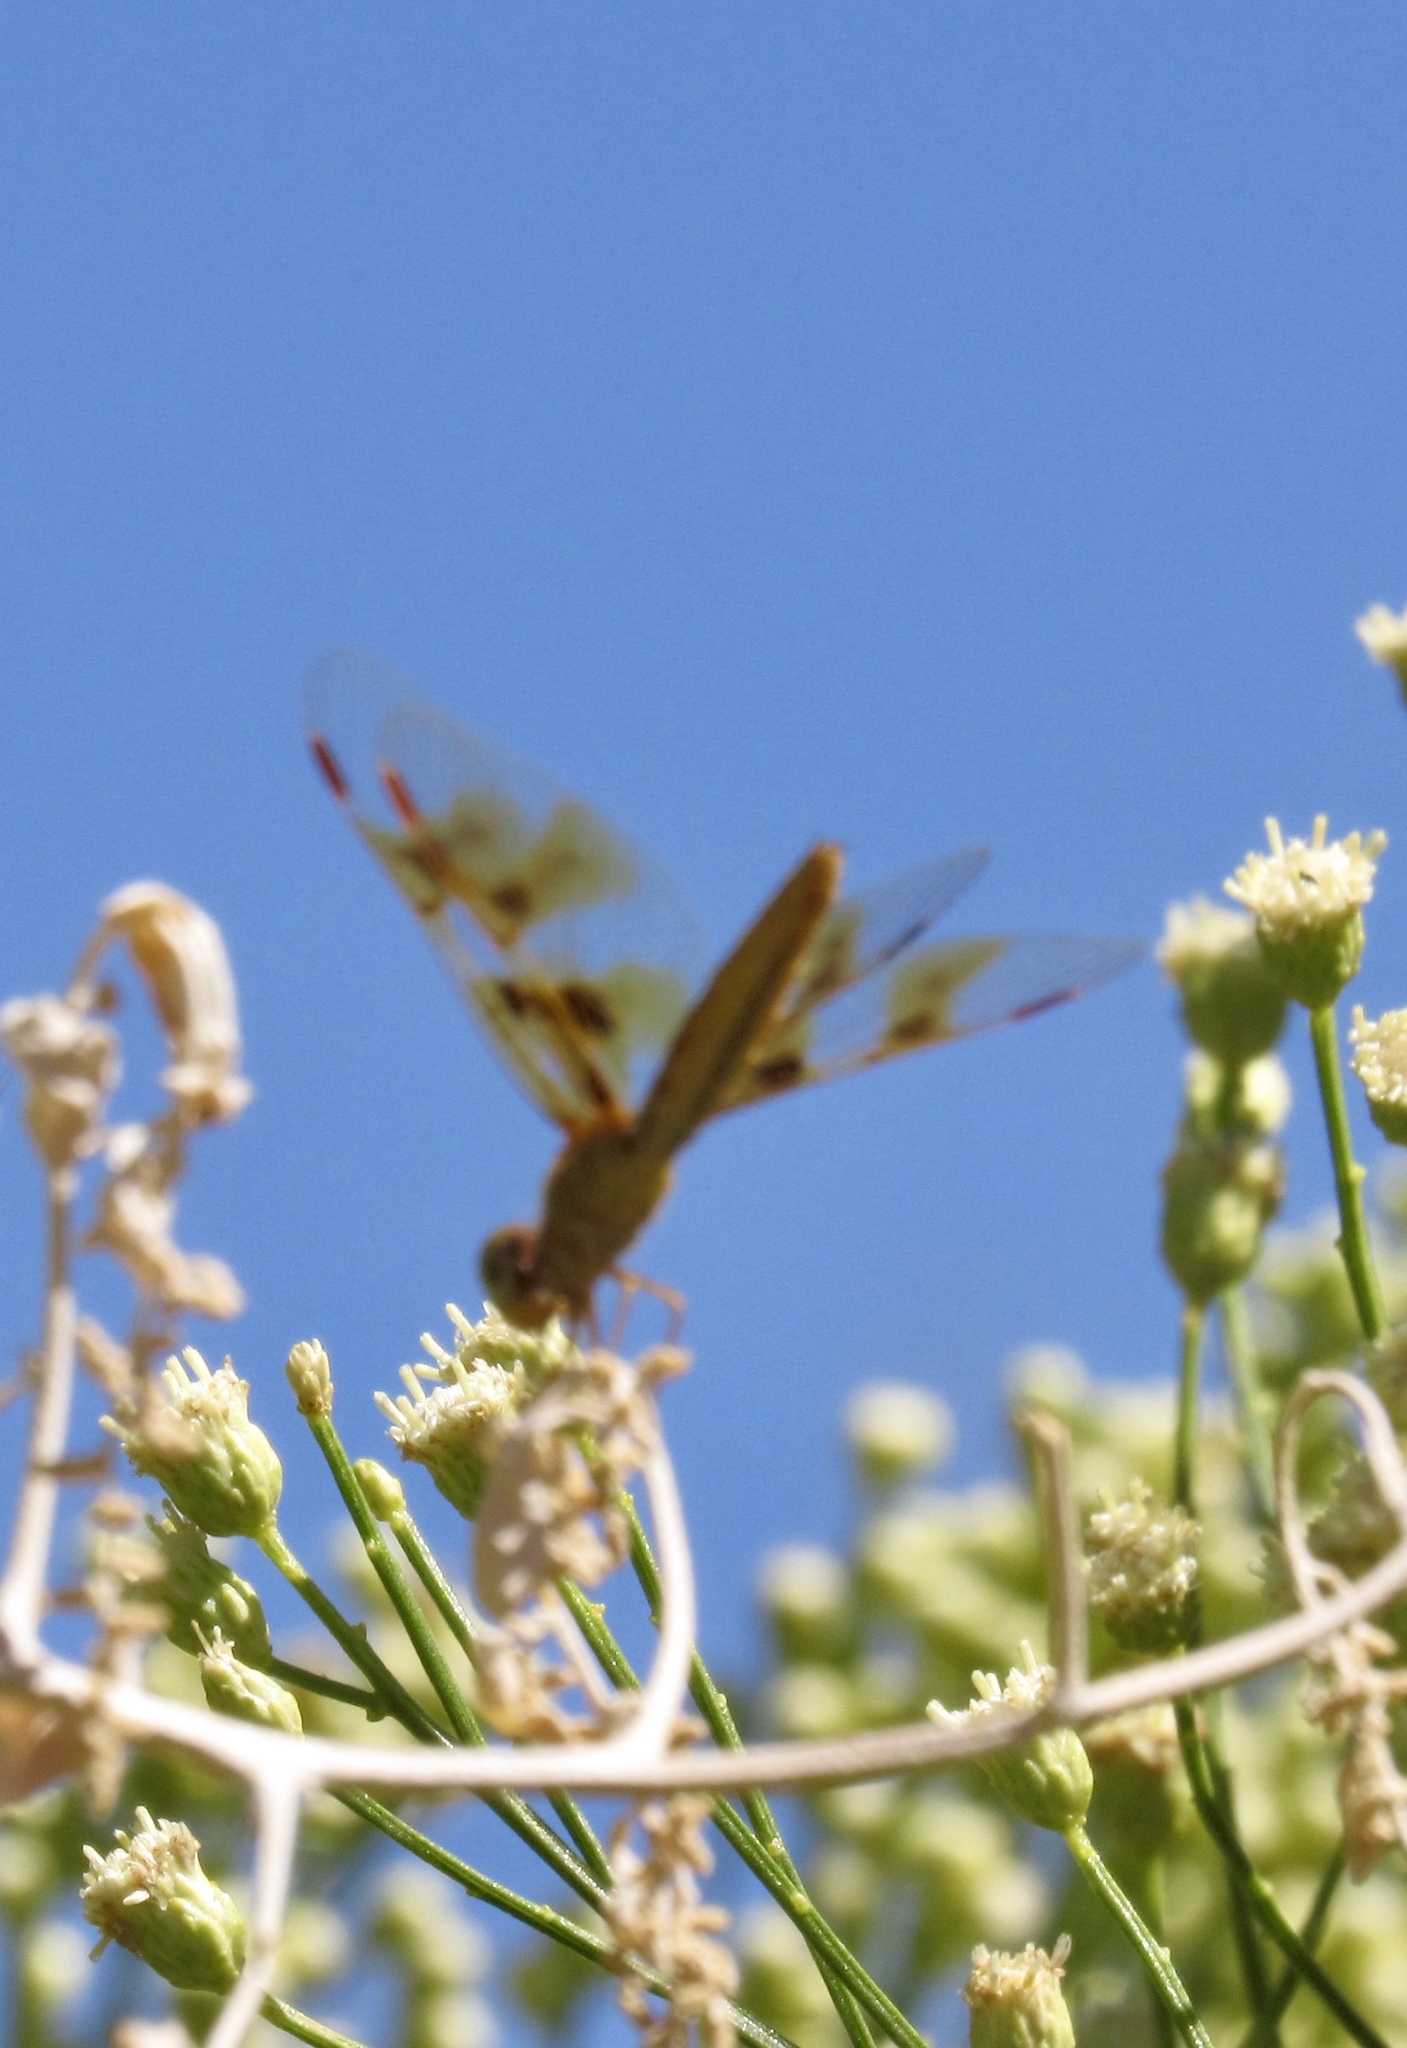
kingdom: Animalia
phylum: Arthropoda
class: Insecta
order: Odonata
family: Libellulidae
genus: Perithemis
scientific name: Perithemis intensa
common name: Mexican amberwing
